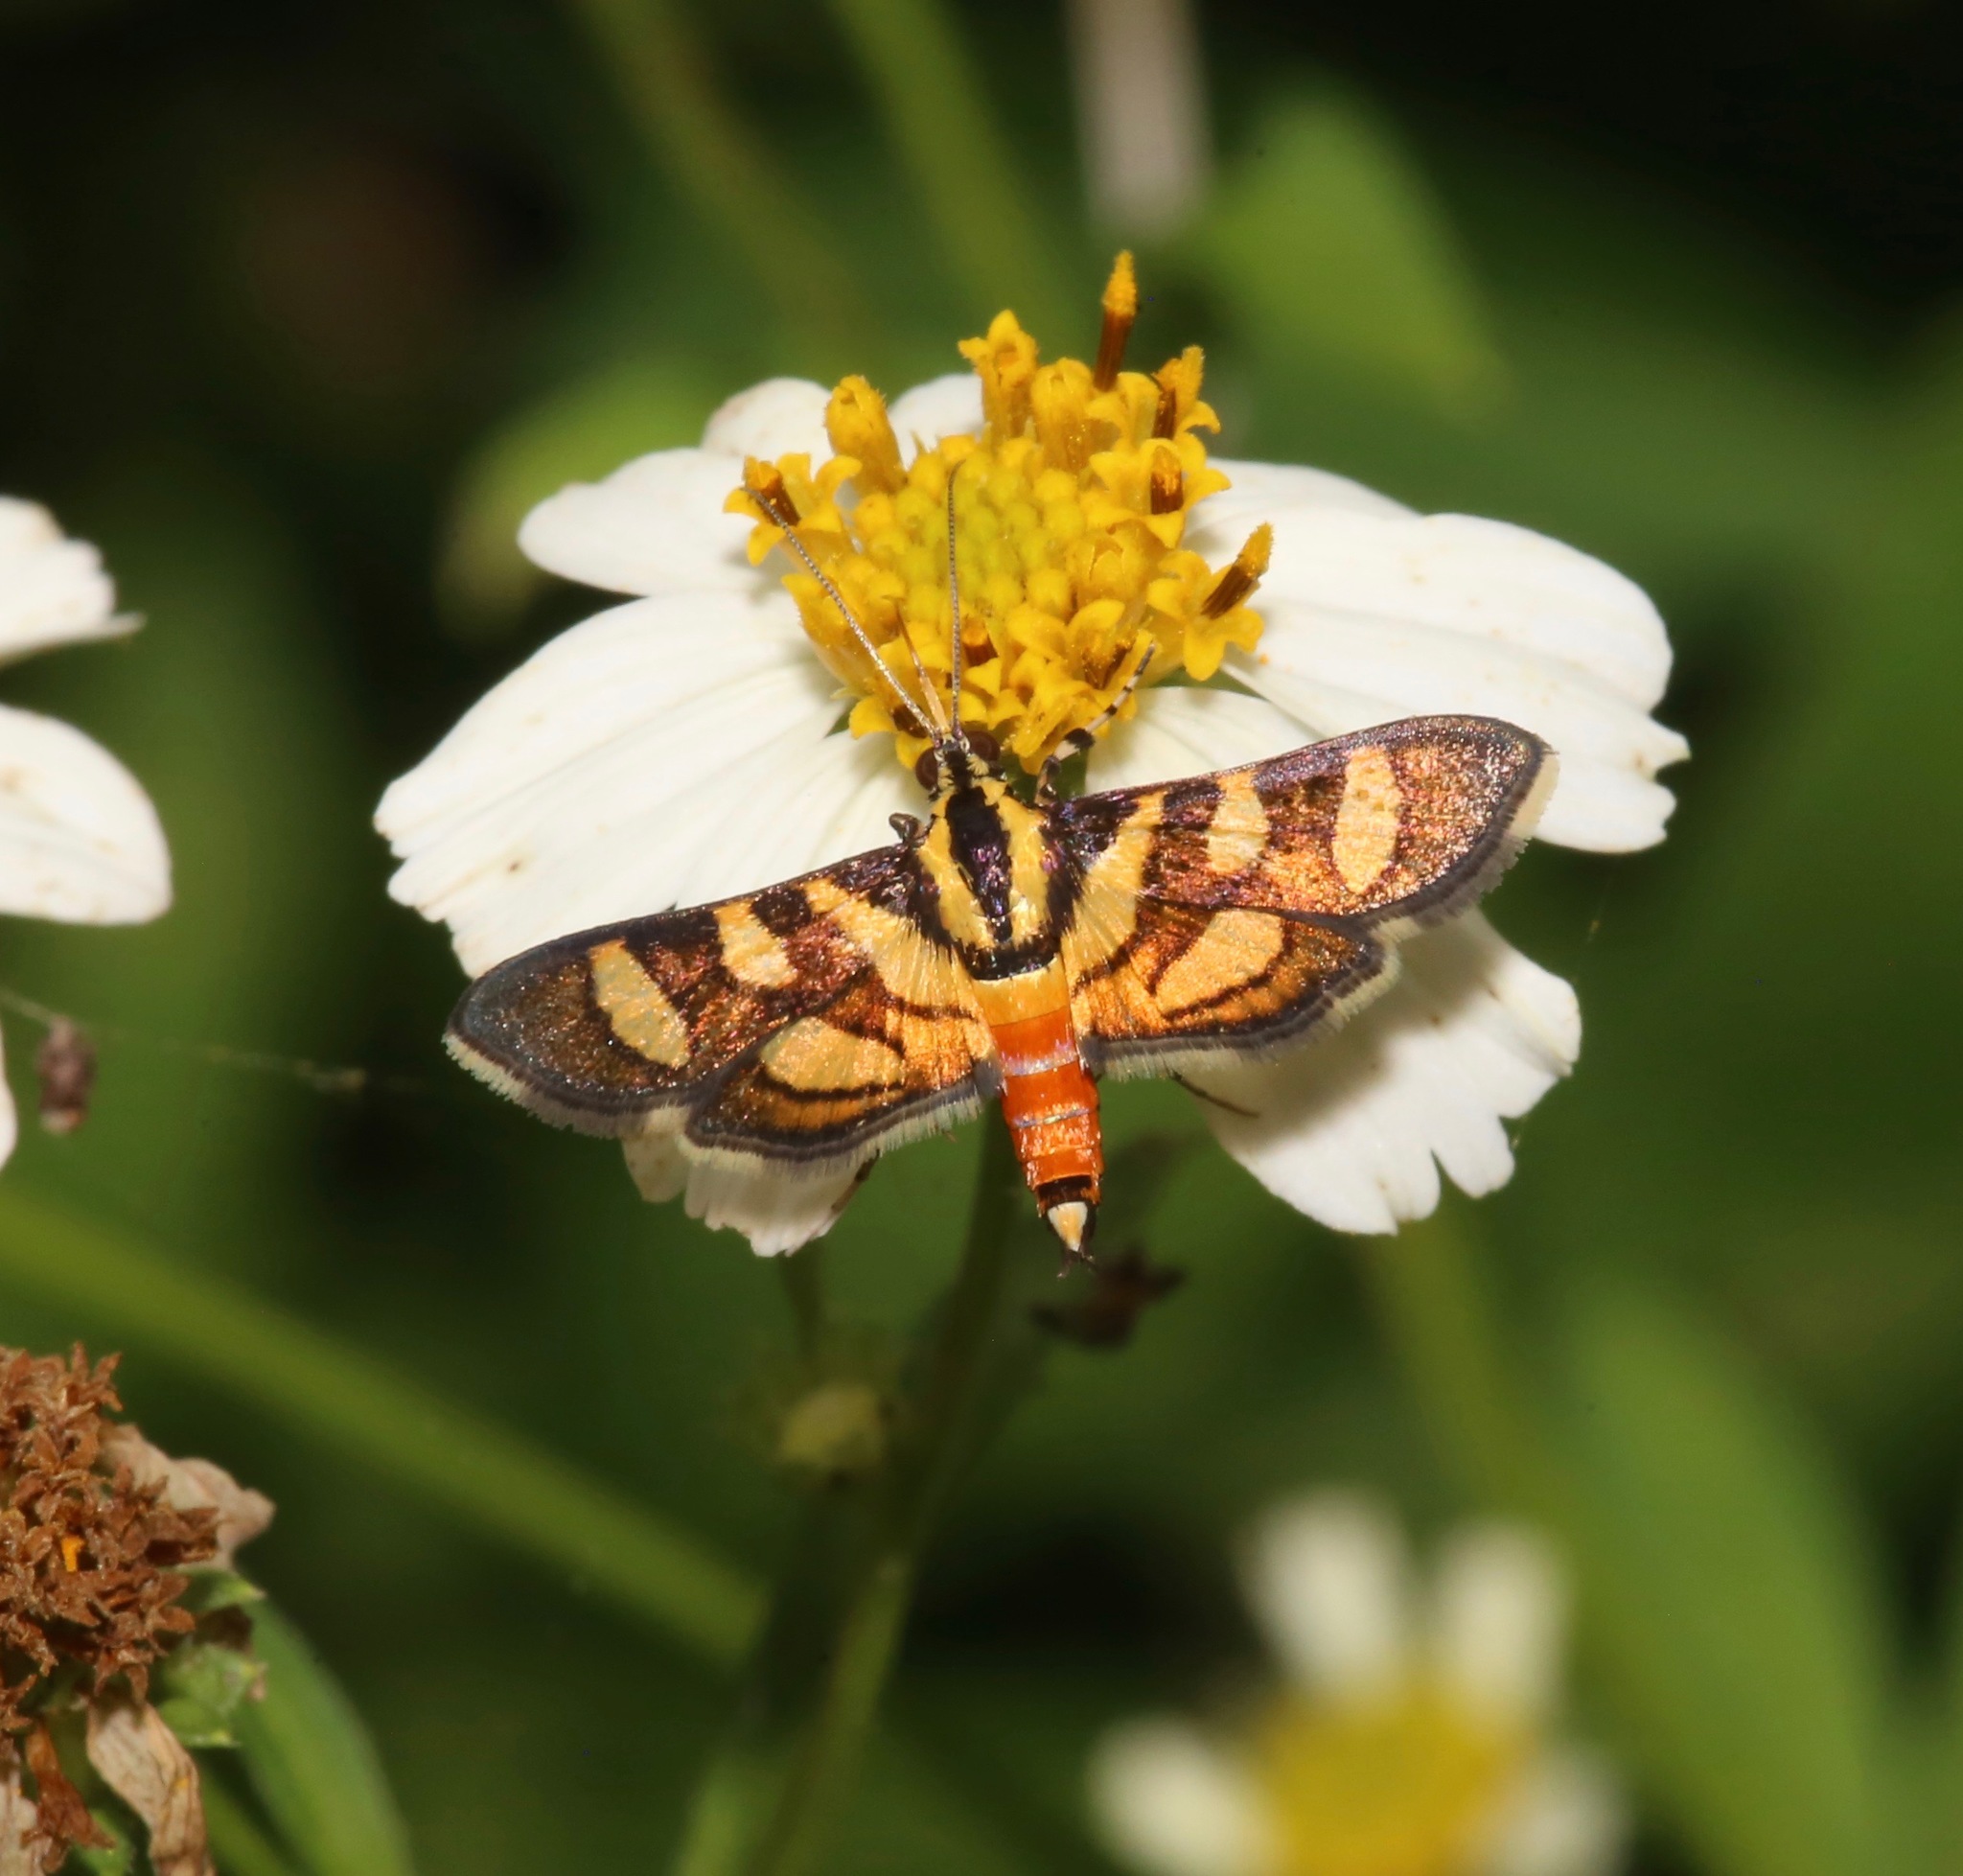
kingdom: Animalia
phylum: Arthropoda
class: Insecta
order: Lepidoptera
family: Crambidae
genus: Syngamia
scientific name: Syngamia florella
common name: Orange-spotted flower moth
